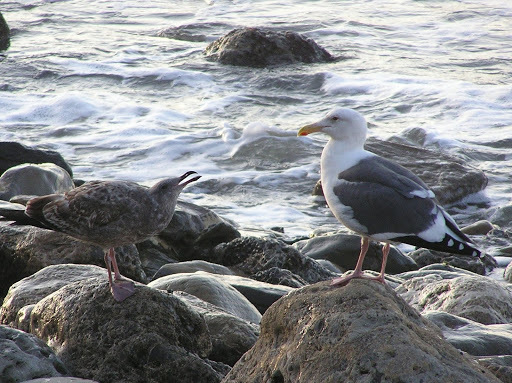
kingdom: Animalia
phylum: Chordata
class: Aves
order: Charadriiformes
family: Laridae
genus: Larus
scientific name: Larus occidentalis
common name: Western gull
